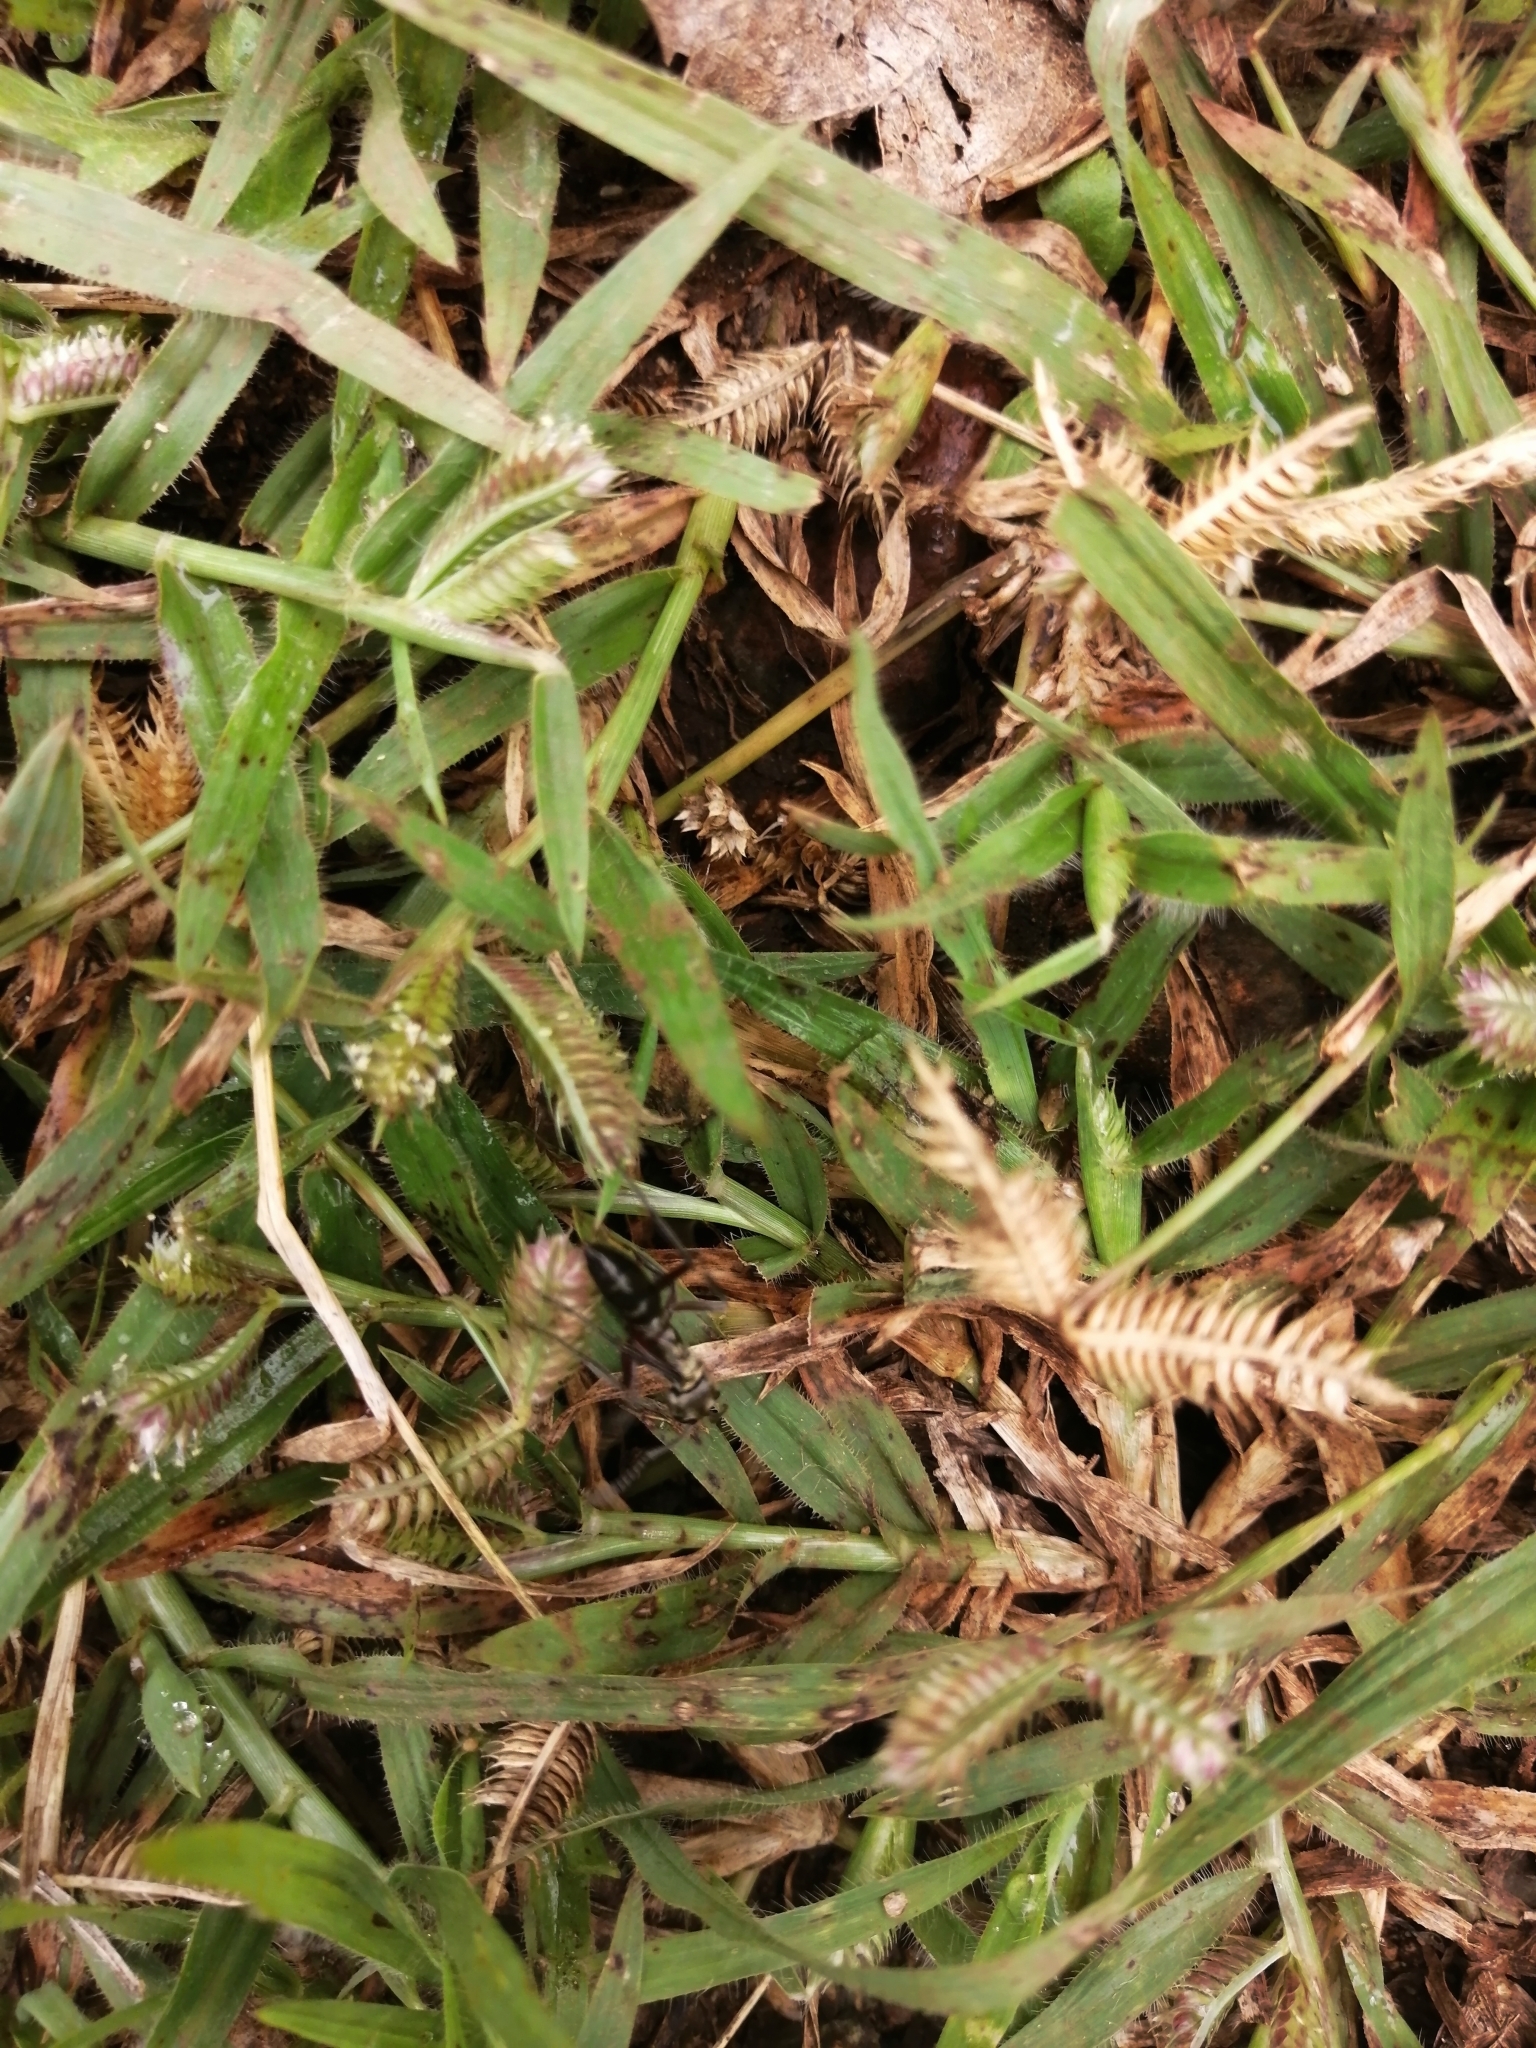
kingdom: Animalia
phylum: Arthropoda
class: Insecta
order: Hymenoptera
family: Formicidae
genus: Pachycondyla
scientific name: Pachycondyla villosa
